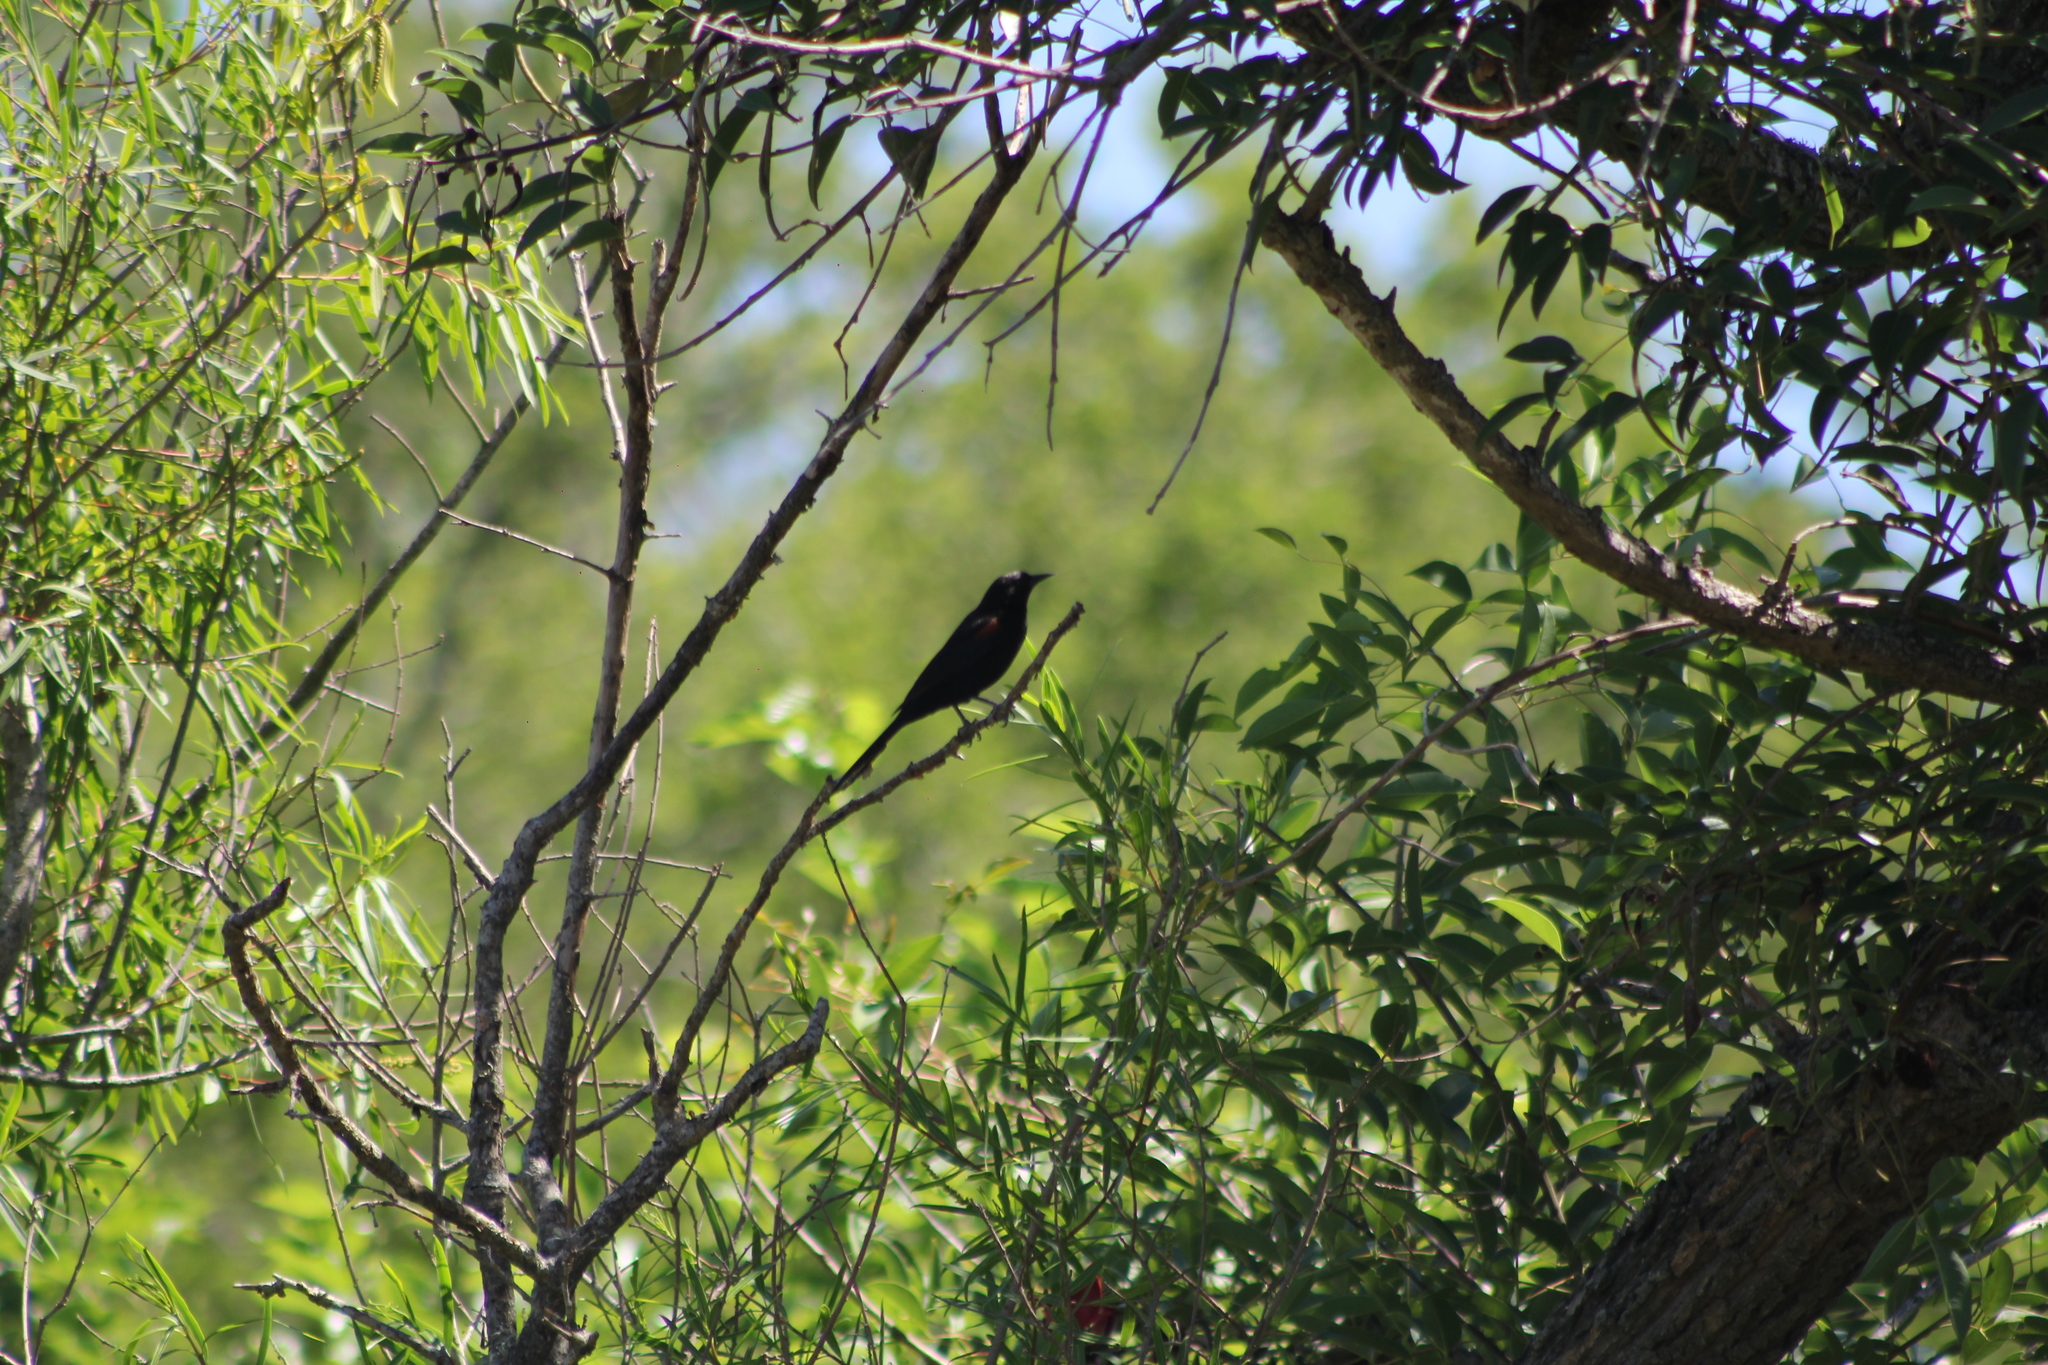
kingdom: Animalia
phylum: Chordata
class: Aves
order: Passeriformes
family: Icteridae
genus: Icterus
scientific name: Icterus cayanensis
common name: Epaulet oriole
